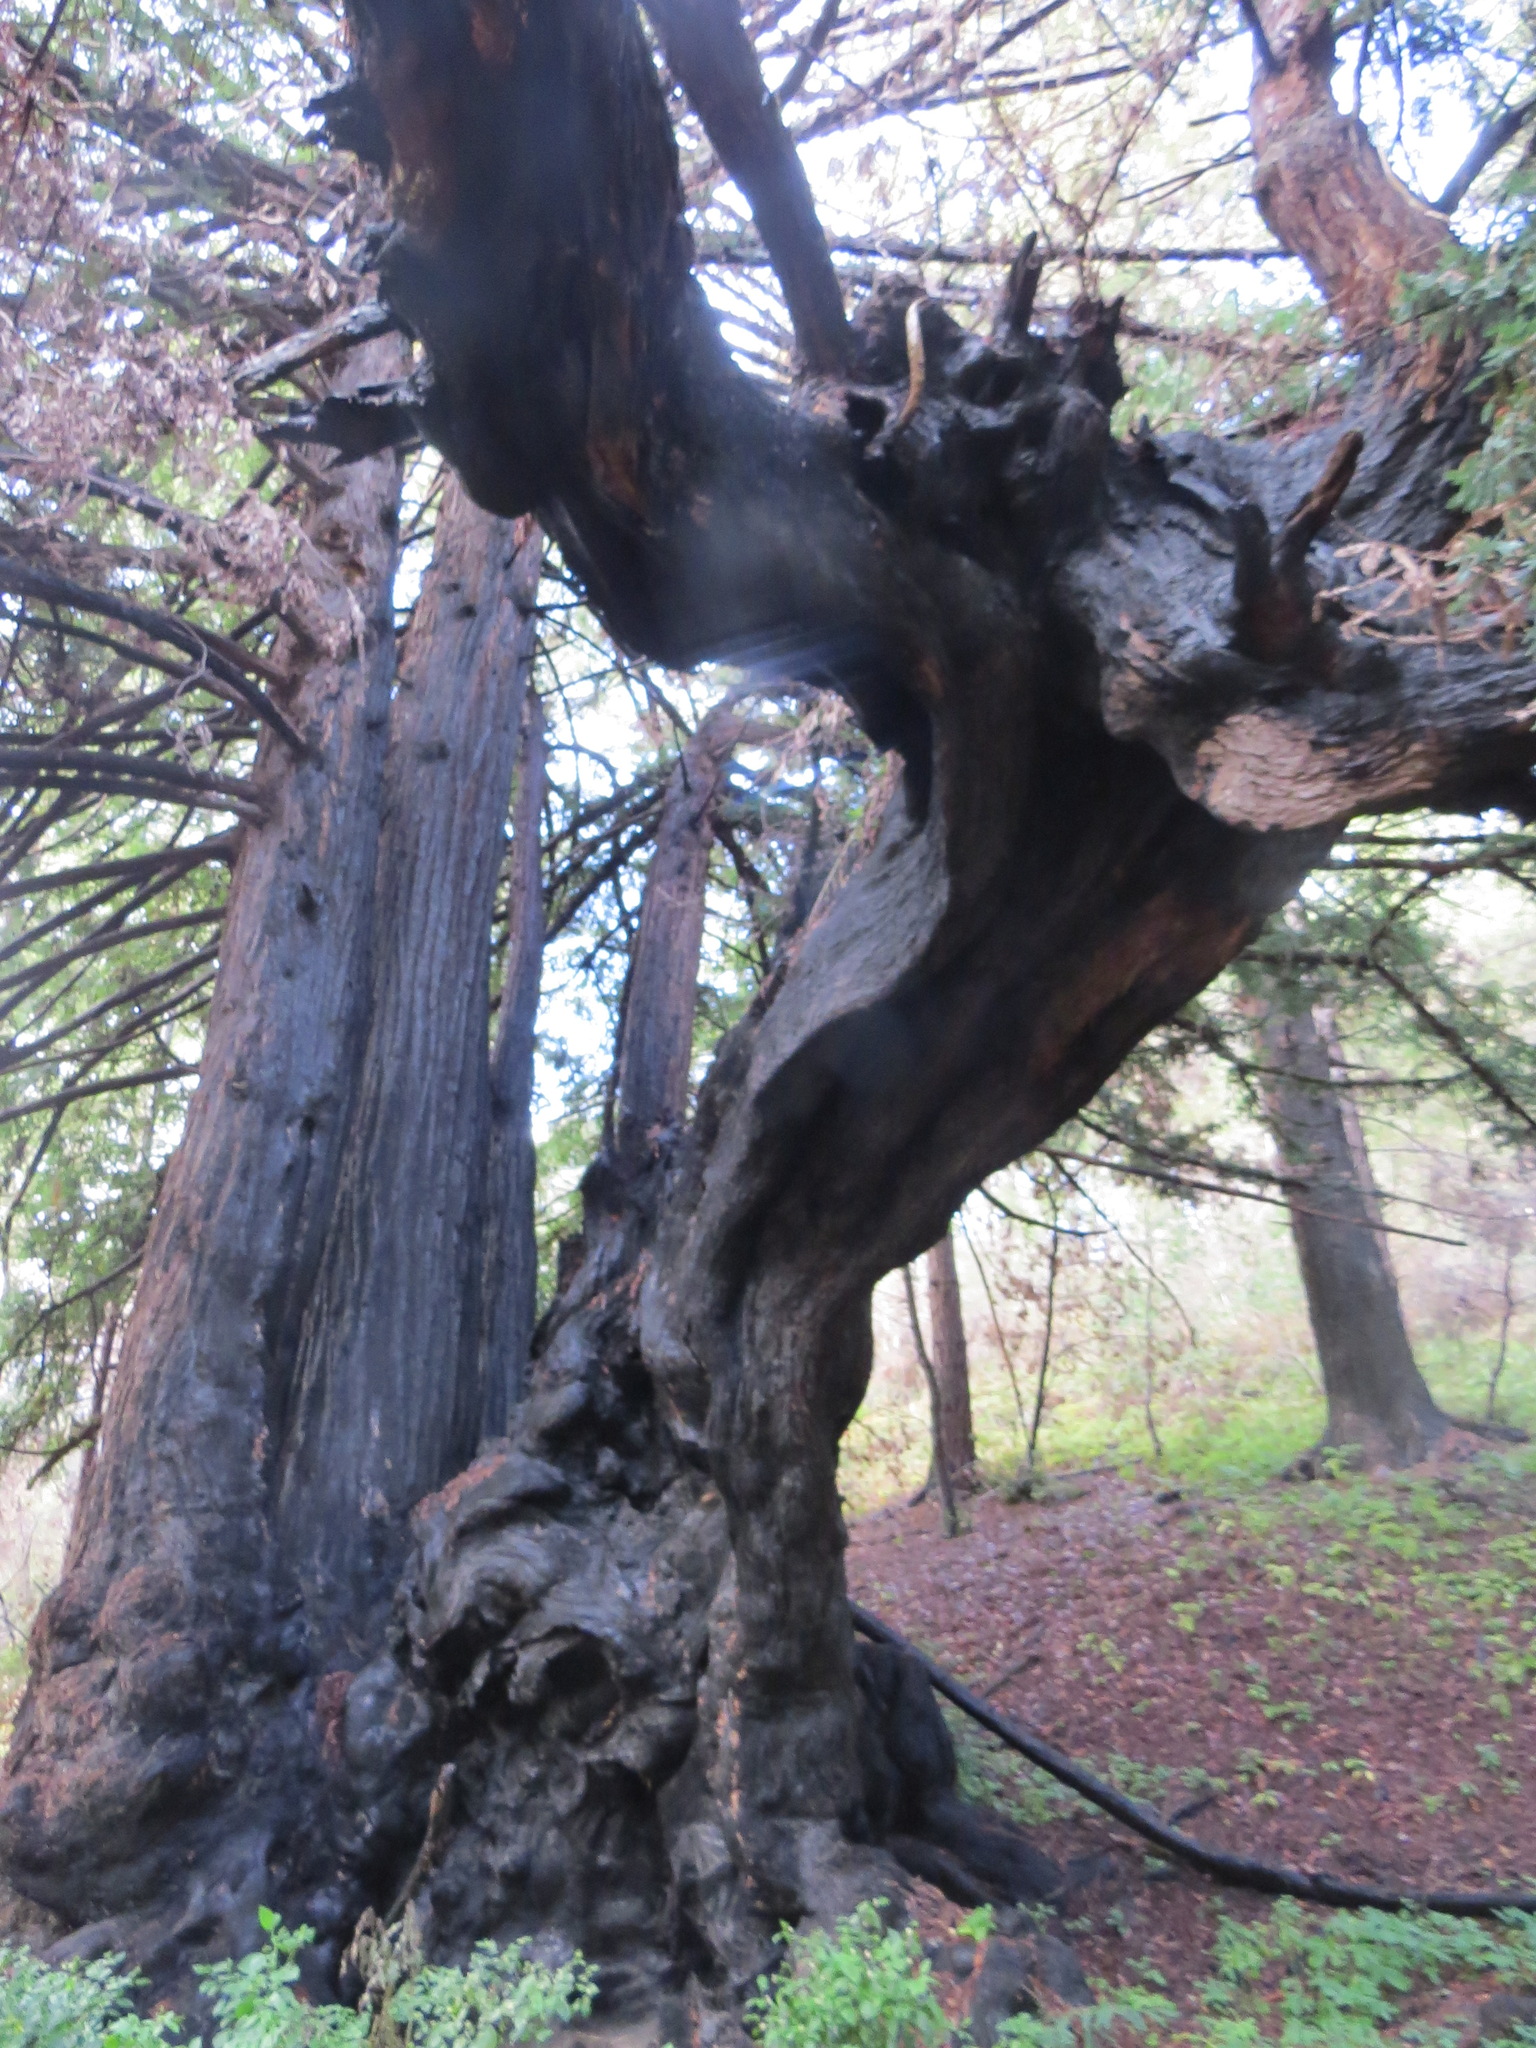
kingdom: Plantae
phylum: Tracheophyta
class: Pinopsida
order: Pinales
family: Cupressaceae
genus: Sequoia
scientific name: Sequoia sempervirens
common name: Coast redwood
